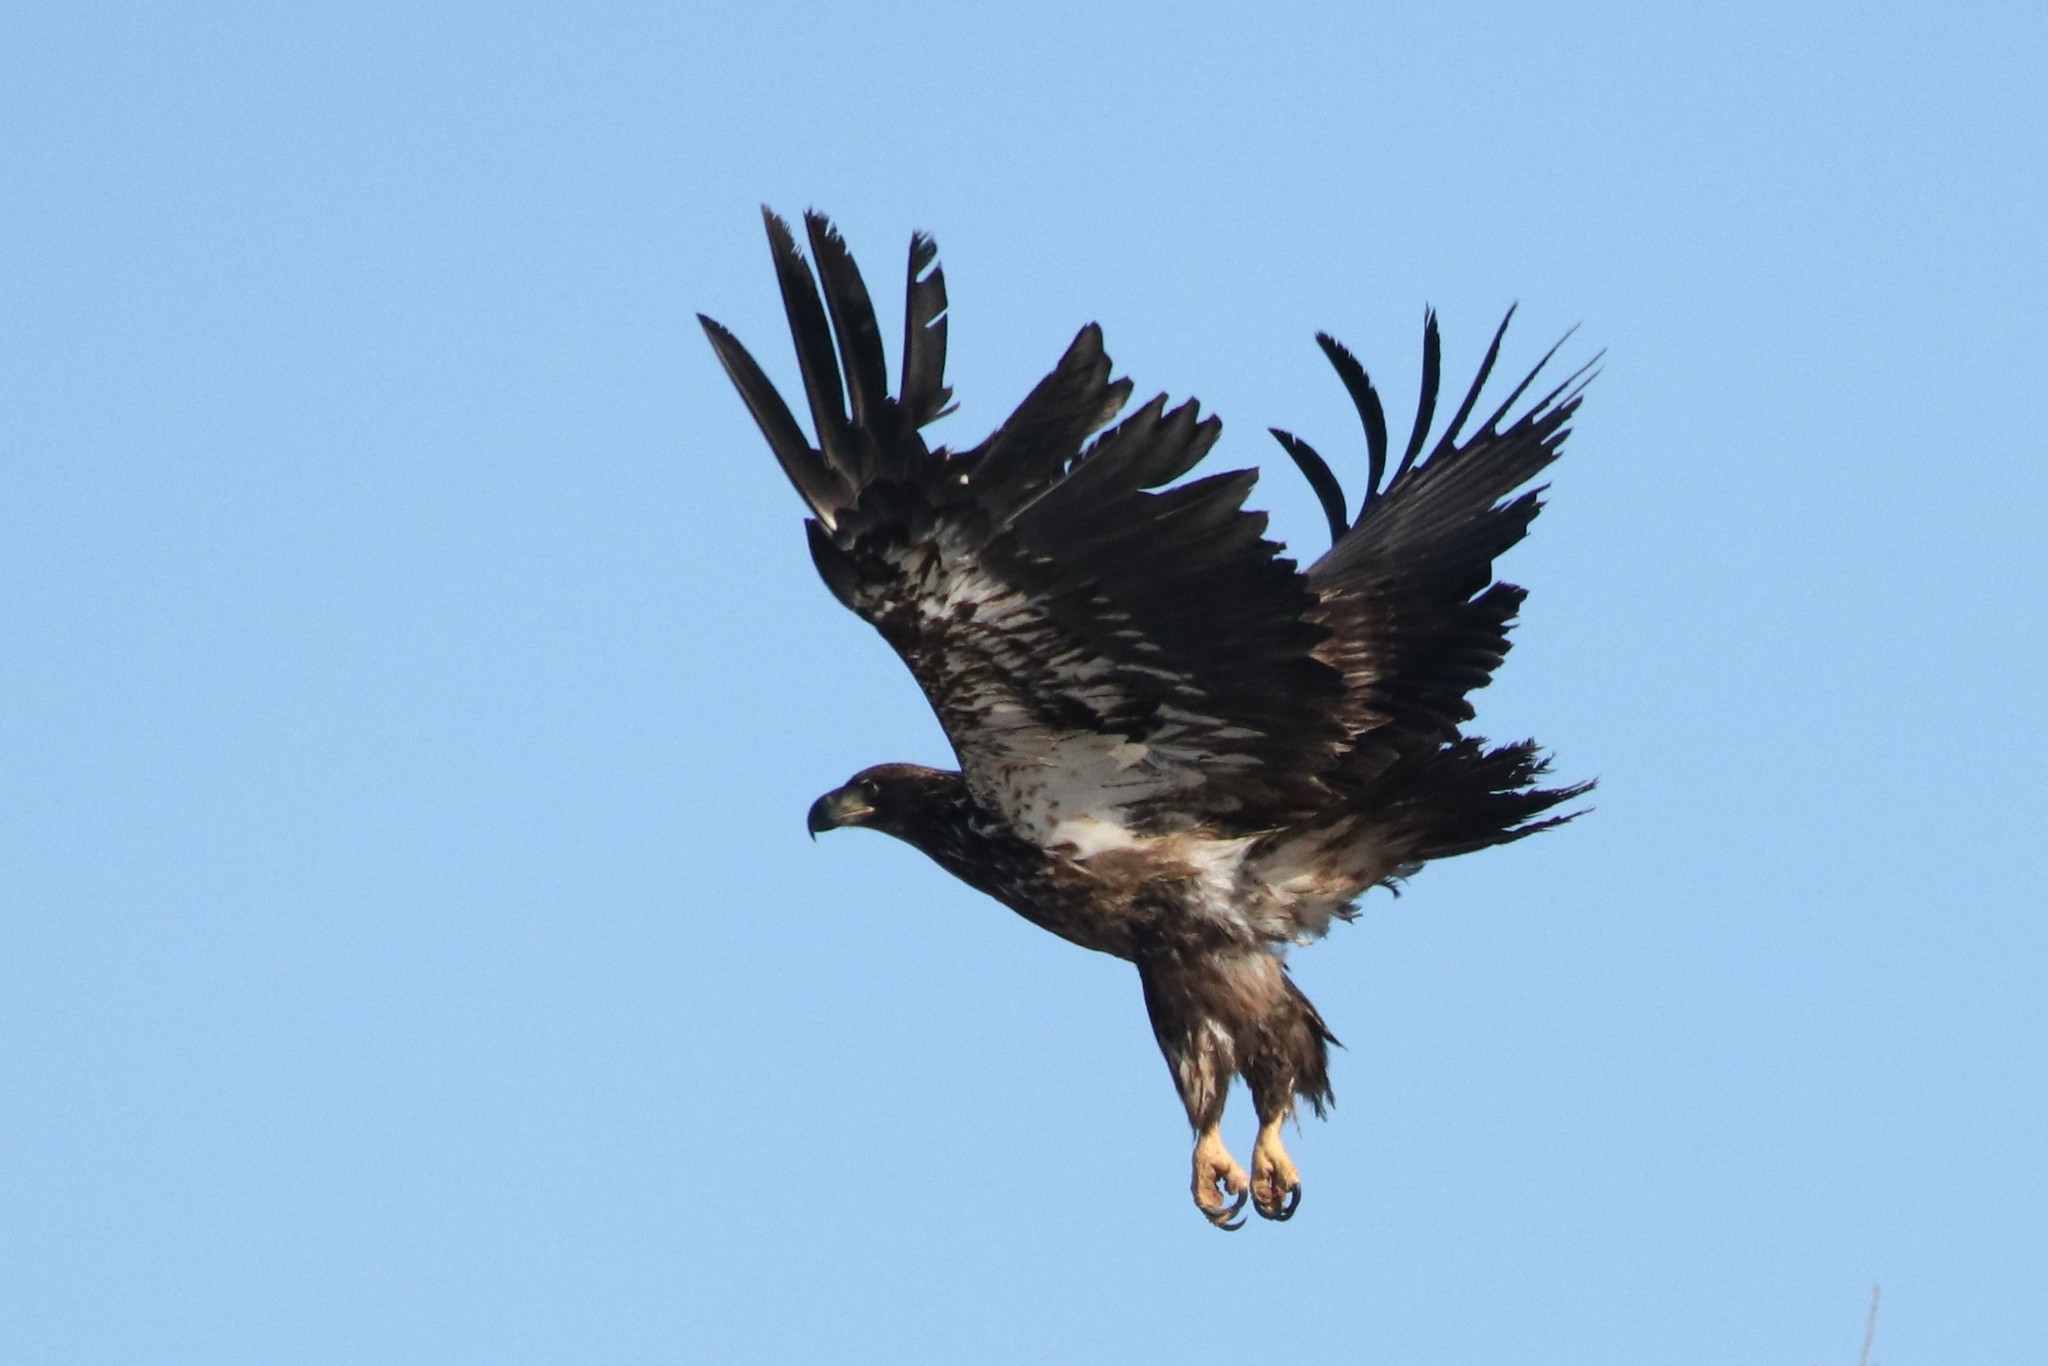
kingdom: Animalia
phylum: Chordata
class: Aves
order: Accipitriformes
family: Accipitridae
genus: Haliaeetus
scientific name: Haliaeetus leucocephalus
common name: Bald eagle
